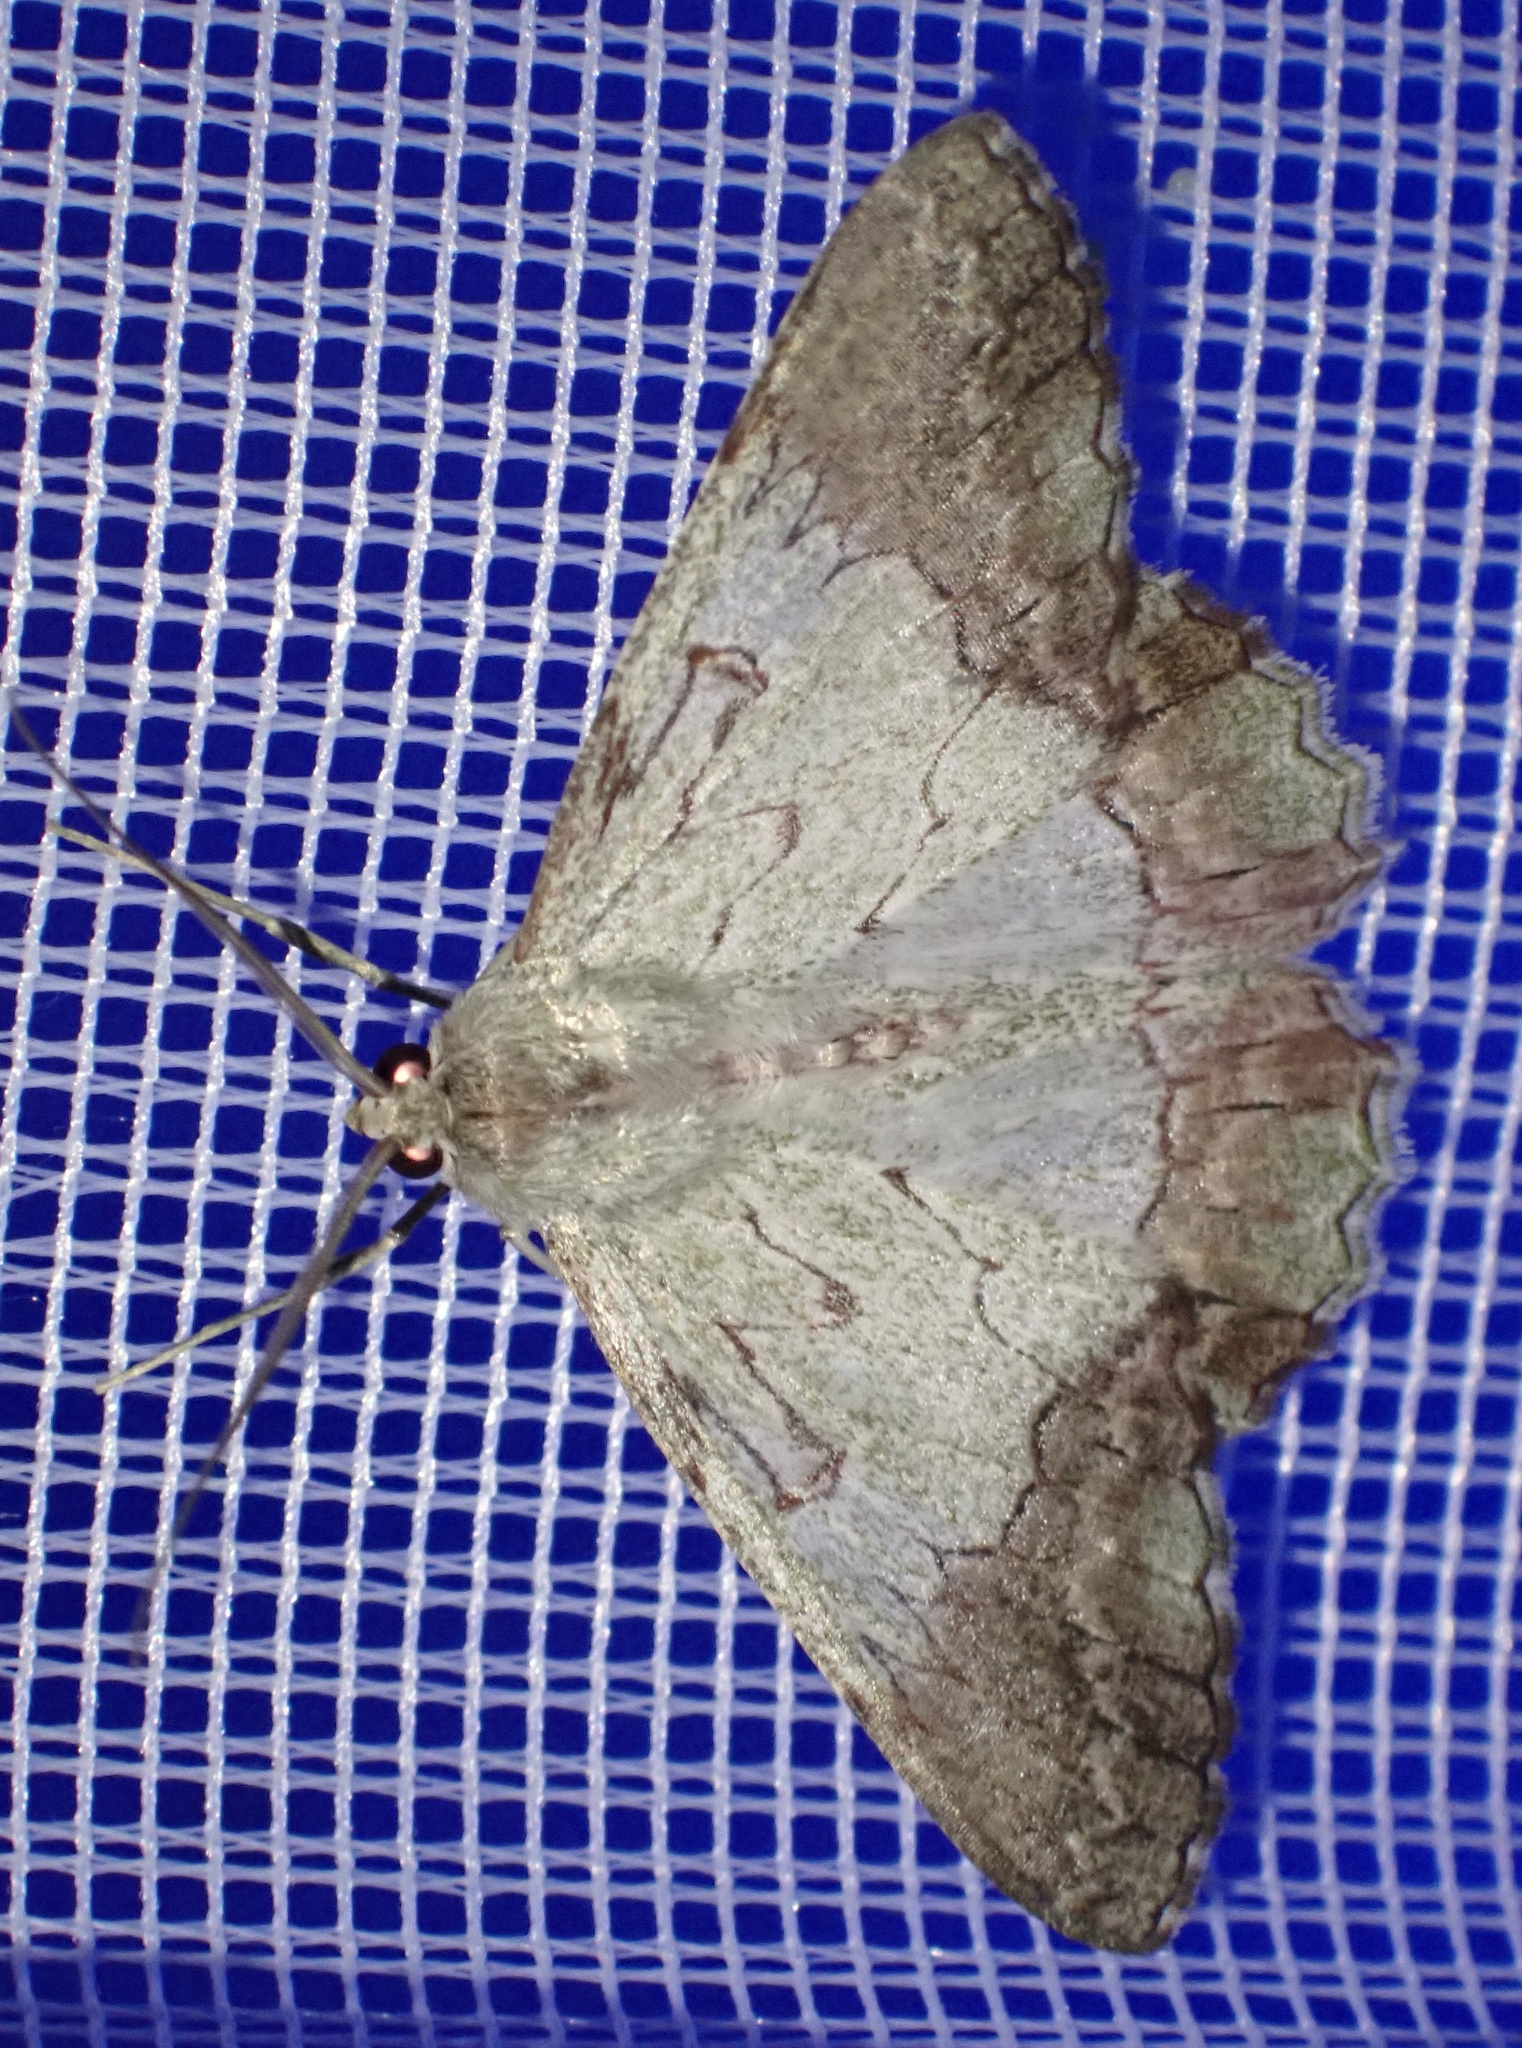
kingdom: Animalia
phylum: Arthropoda
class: Insecta
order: Lepidoptera
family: Geometridae
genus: Pingasa
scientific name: Pingasa blanda
